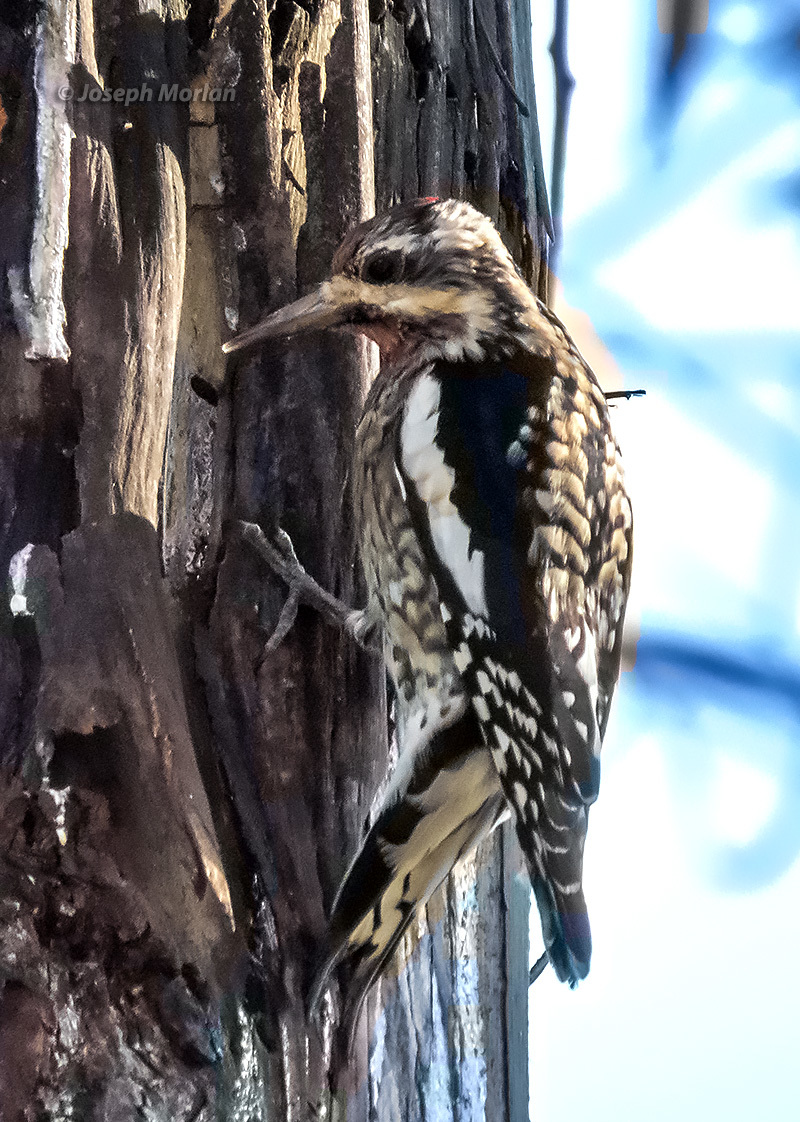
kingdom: Animalia
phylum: Chordata
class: Aves
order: Piciformes
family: Picidae
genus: Sphyrapicus
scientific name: Sphyrapicus varius
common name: Yellow-bellied sapsucker
